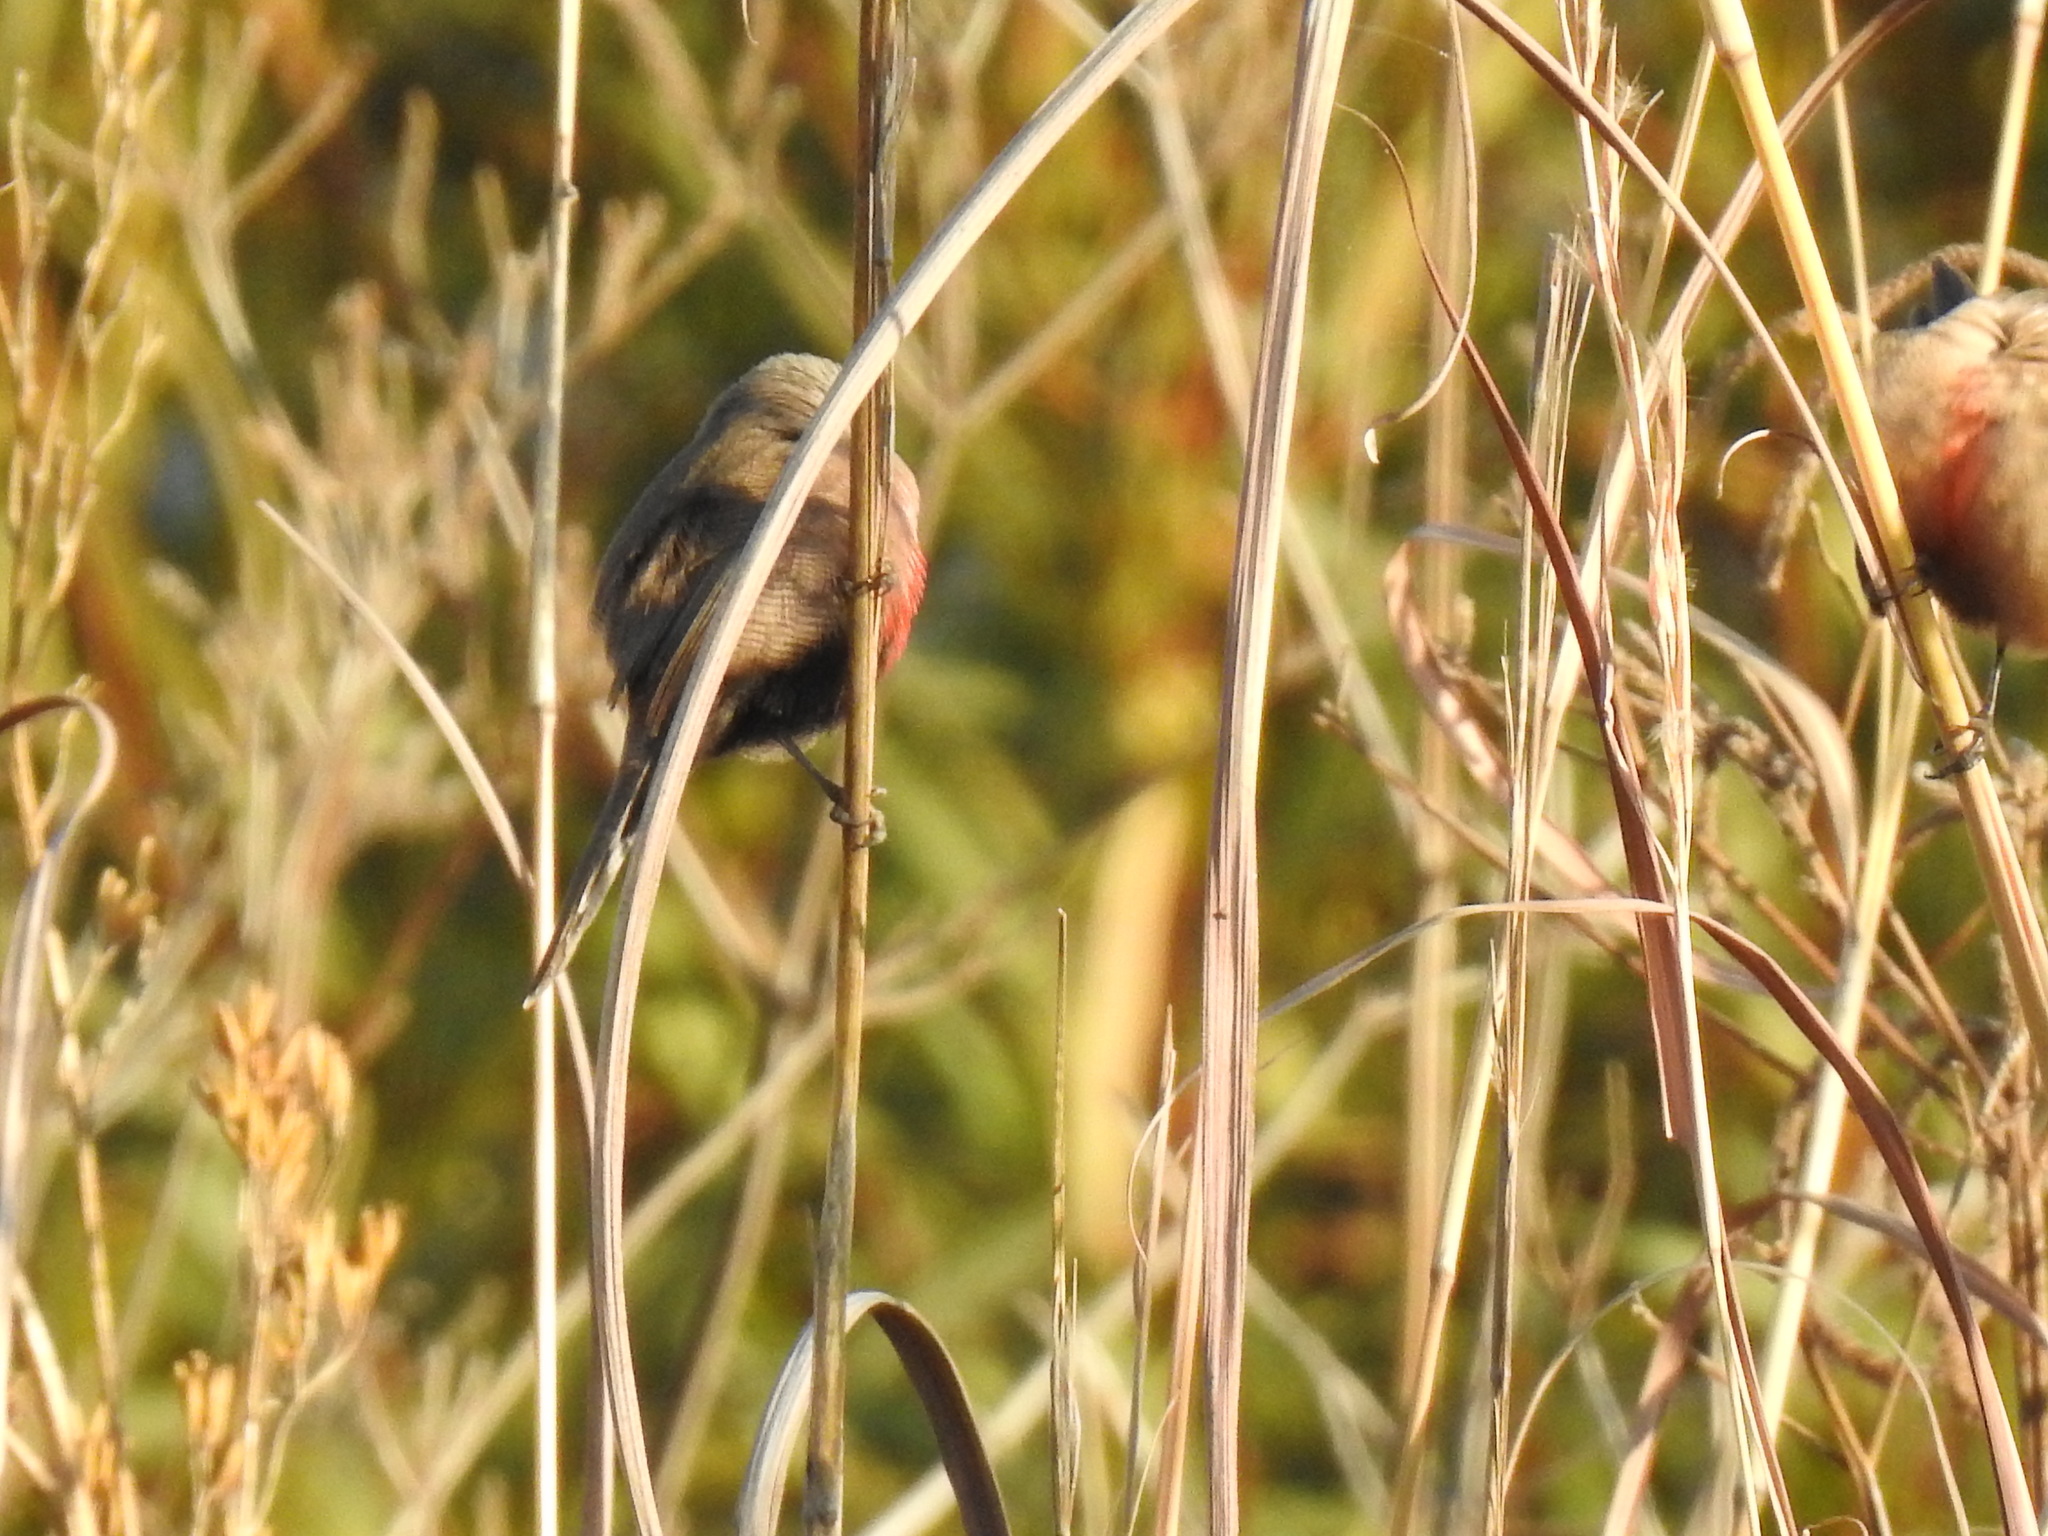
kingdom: Animalia
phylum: Chordata
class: Aves
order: Passeriformes
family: Estrildidae
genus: Estrilda
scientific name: Estrilda astrild
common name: Common waxbill
